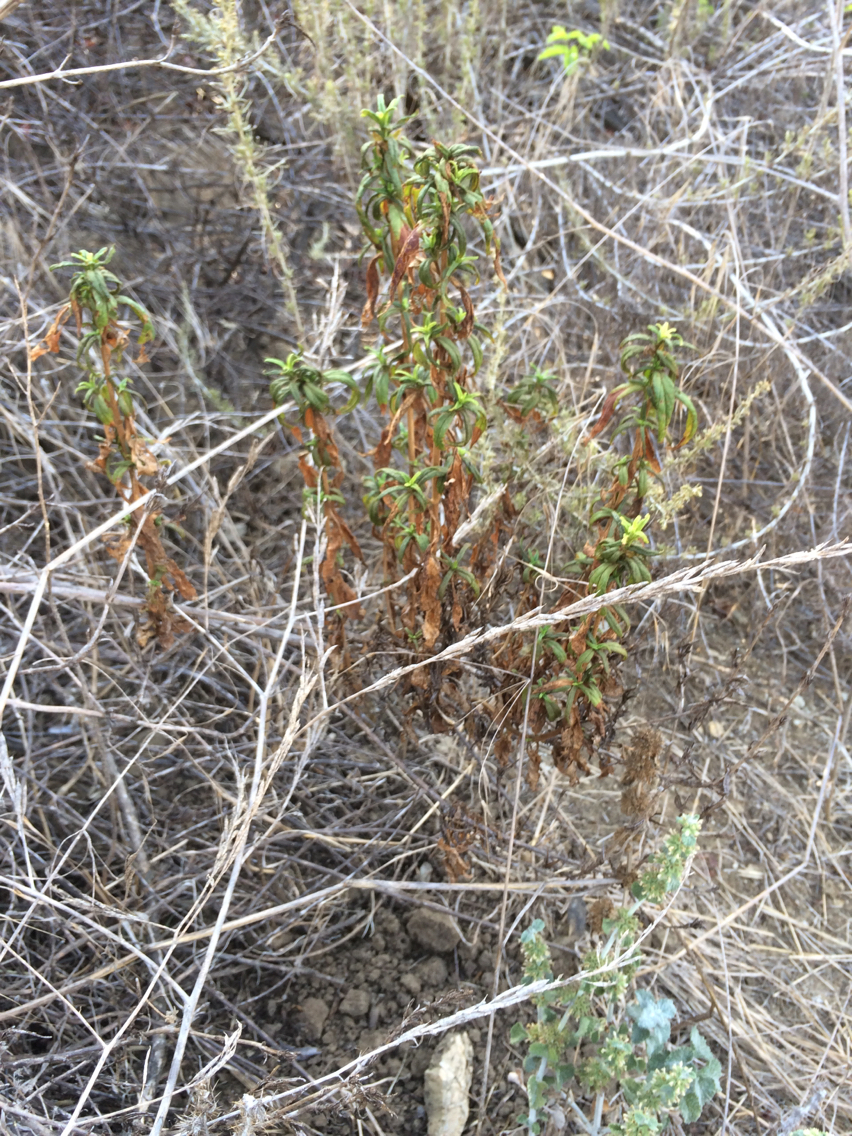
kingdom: Plantae
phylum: Tracheophyta
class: Magnoliopsida
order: Lamiales
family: Phrymaceae
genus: Diplacus
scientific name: Diplacus longiflorus
